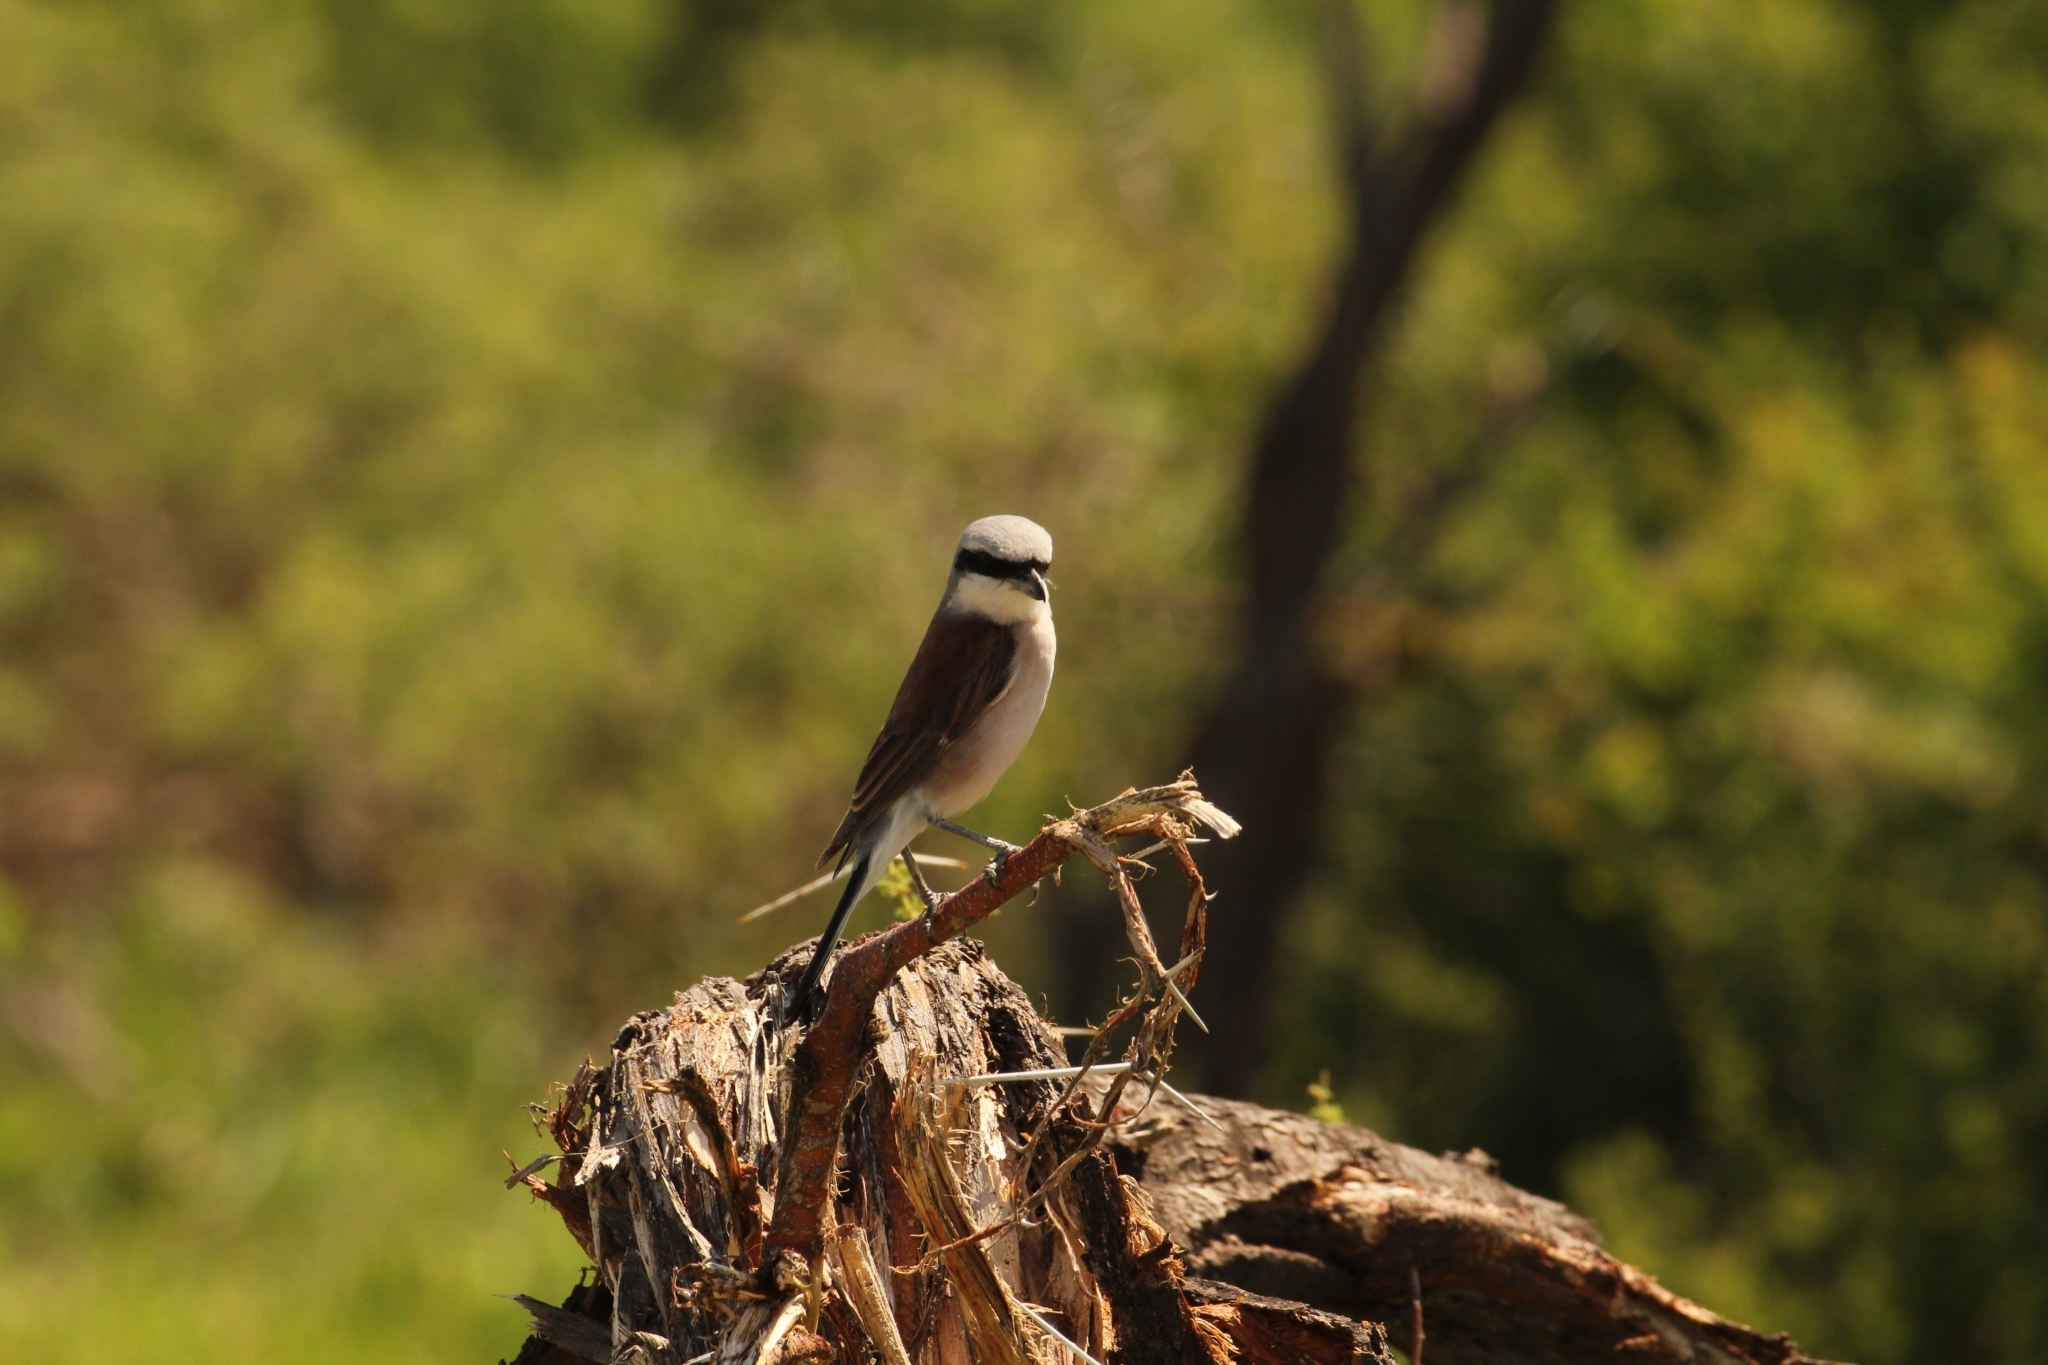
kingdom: Animalia
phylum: Chordata
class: Aves
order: Passeriformes
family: Laniidae
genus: Lanius
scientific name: Lanius collurio
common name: Red-backed shrike
